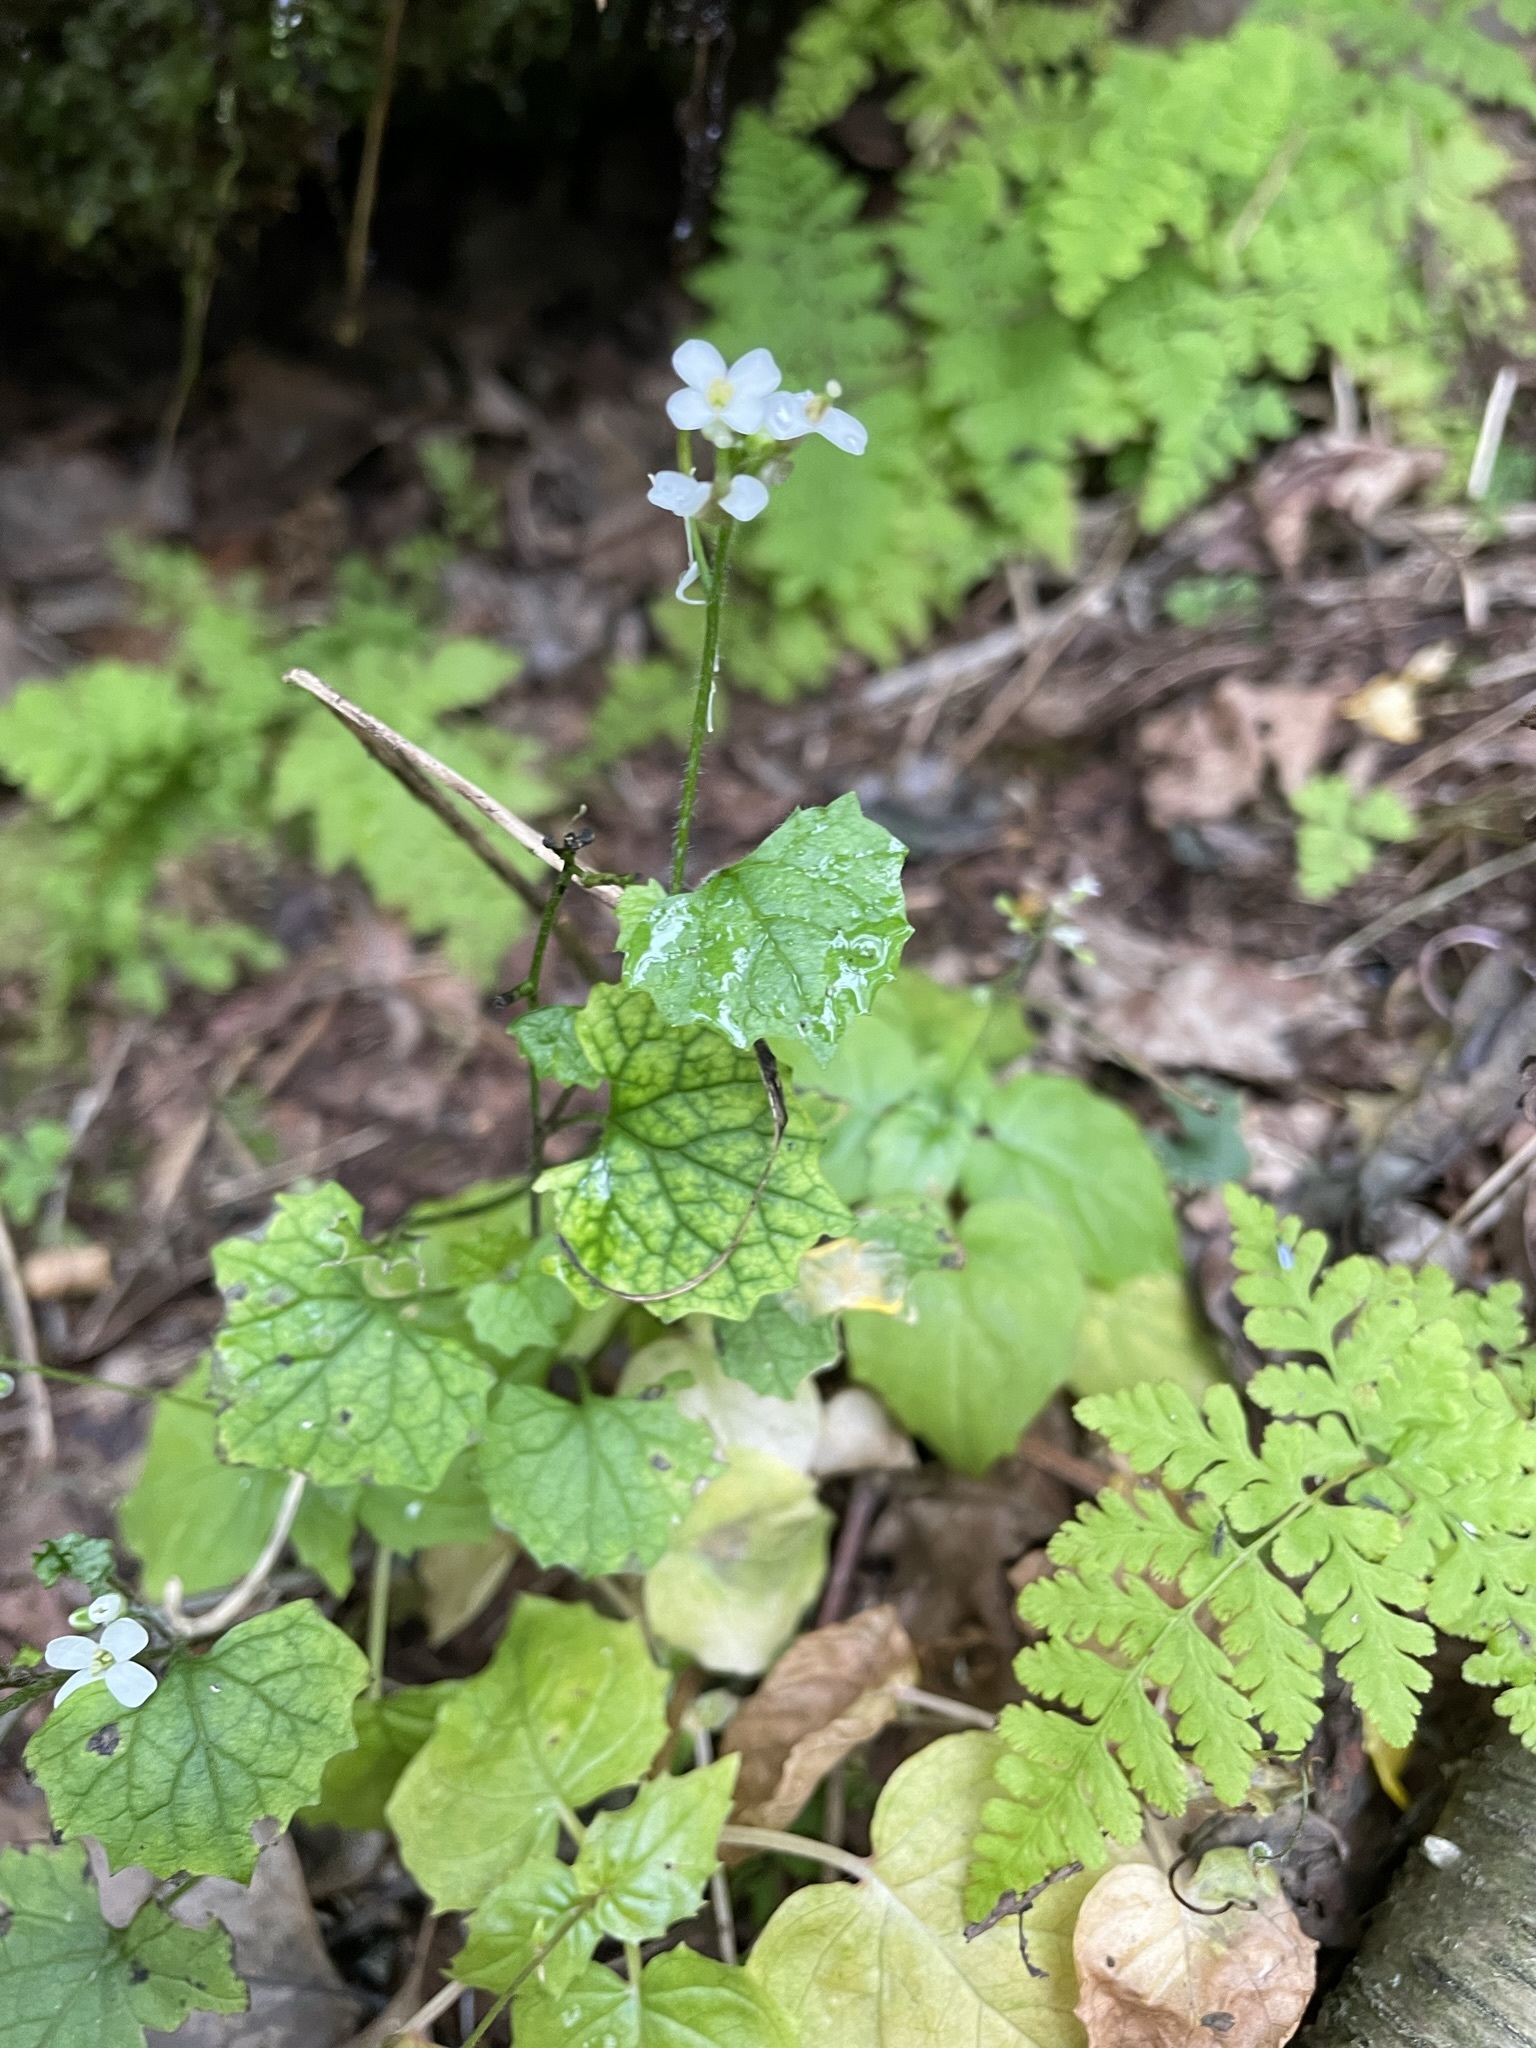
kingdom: Plantae
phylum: Tracheophyta
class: Magnoliopsida
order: Brassicales
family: Brassicaceae
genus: Alliaria
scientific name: Alliaria petiolata
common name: Garlic mustard
